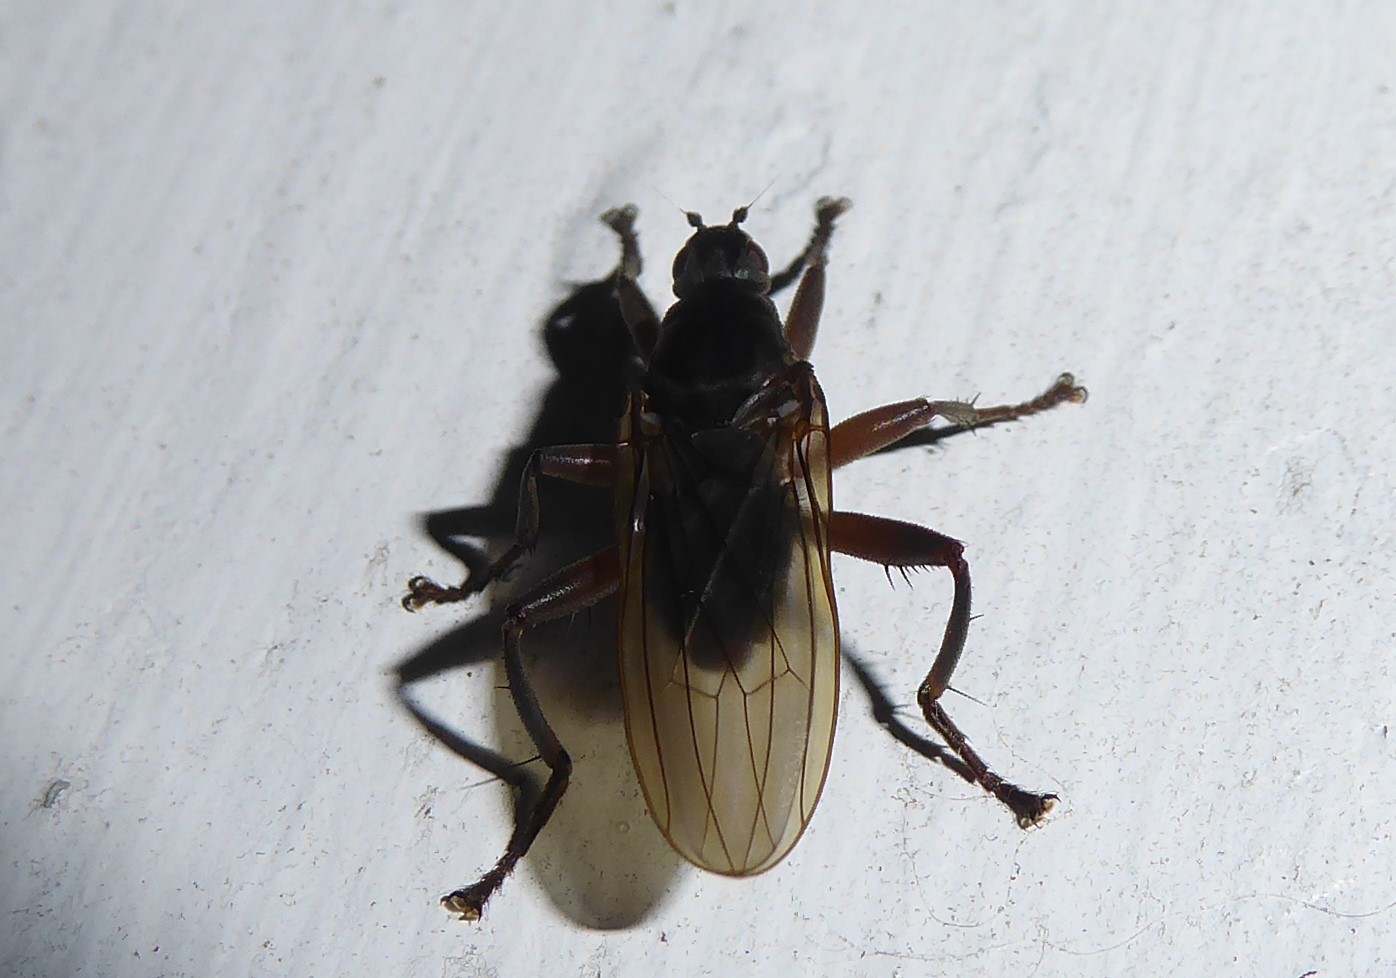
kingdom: Animalia
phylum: Arthropoda
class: Insecta
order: Diptera
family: Coelopidae
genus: Baeopterus
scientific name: Baeopterus philpotti
